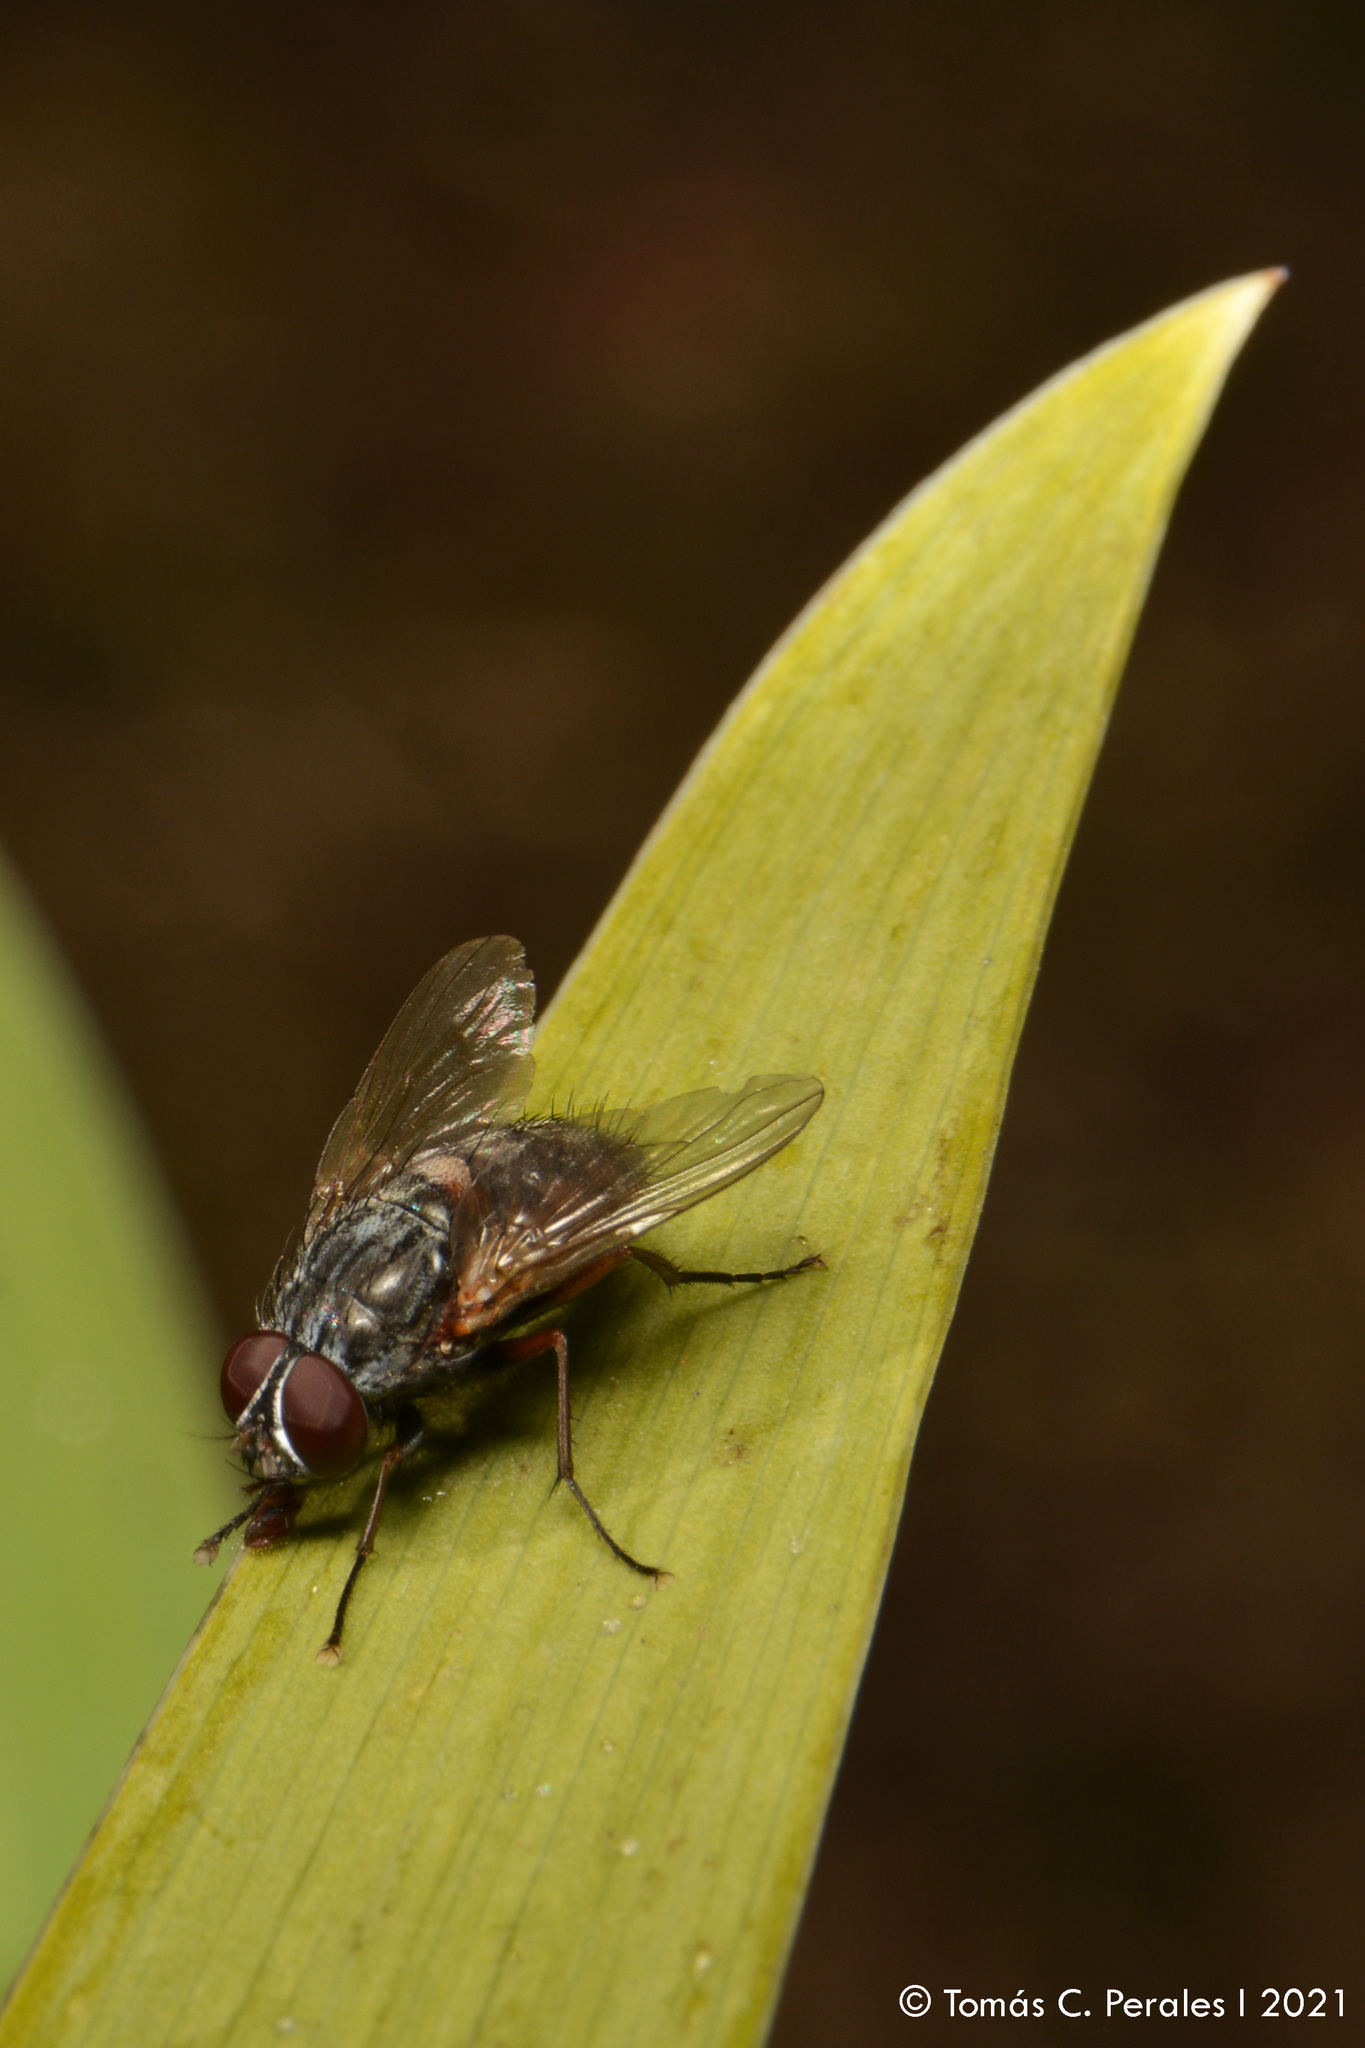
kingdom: Animalia
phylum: Arthropoda
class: Insecta
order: Diptera
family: Muscidae
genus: Muscina
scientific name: Muscina stabulans
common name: False stable fly
